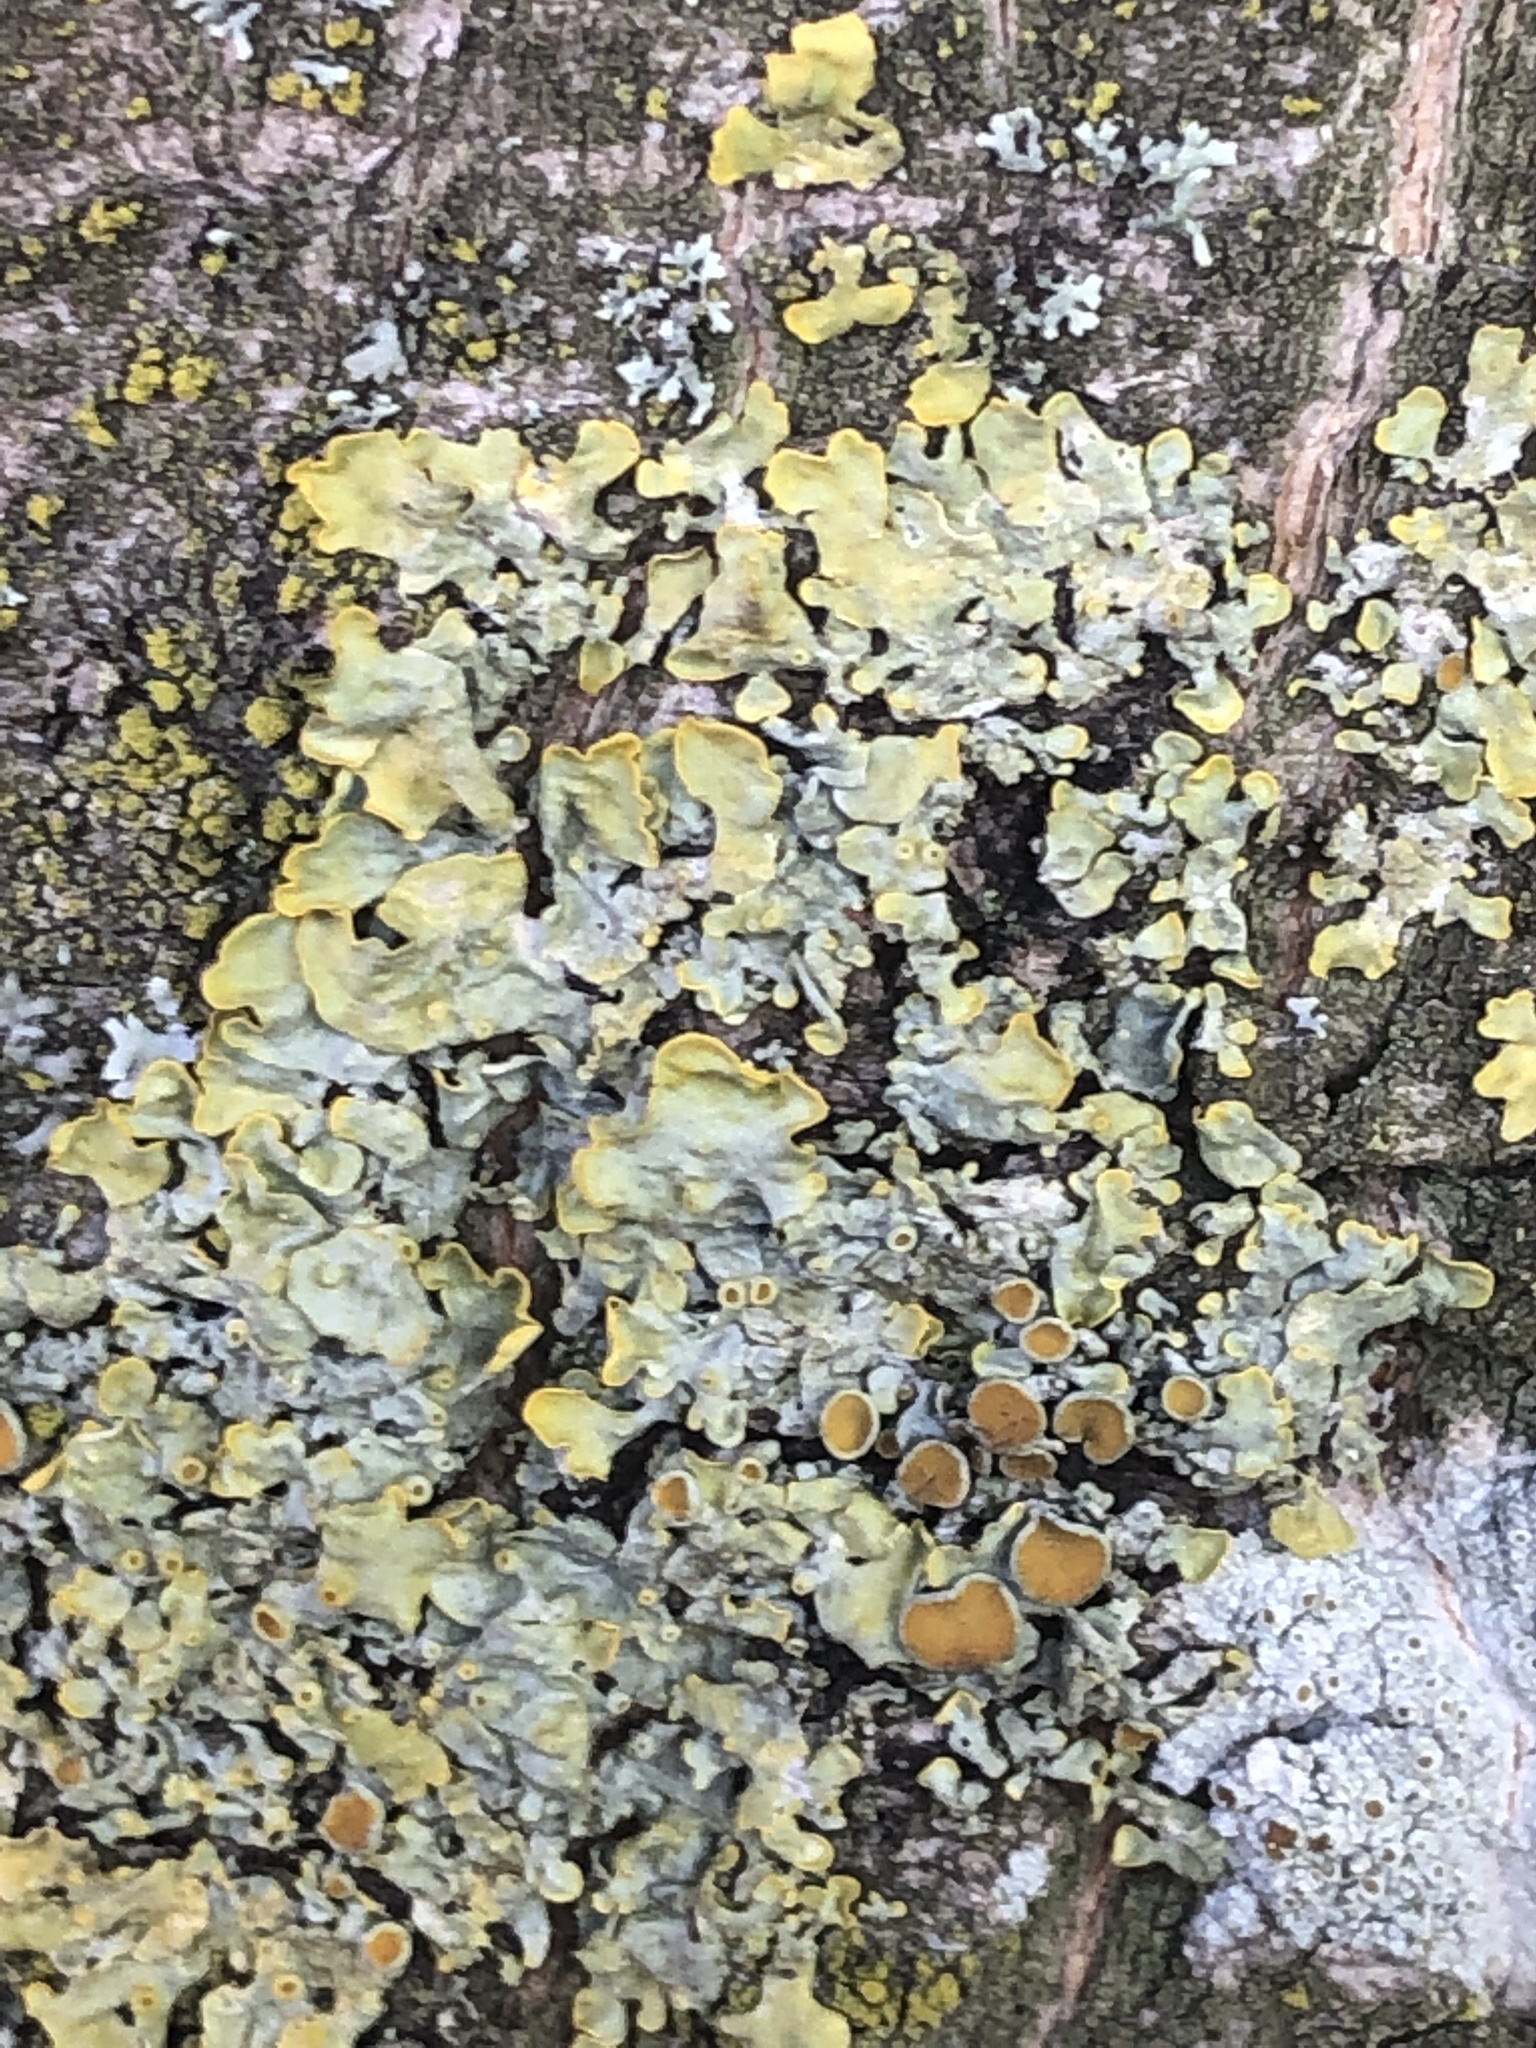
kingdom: Fungi
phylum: Ascomycota
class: Lecanoromycetes
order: Teloschistales
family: Teloschistaceae
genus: Xanthoria
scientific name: Xanthoria parietina
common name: Common orange lichen
